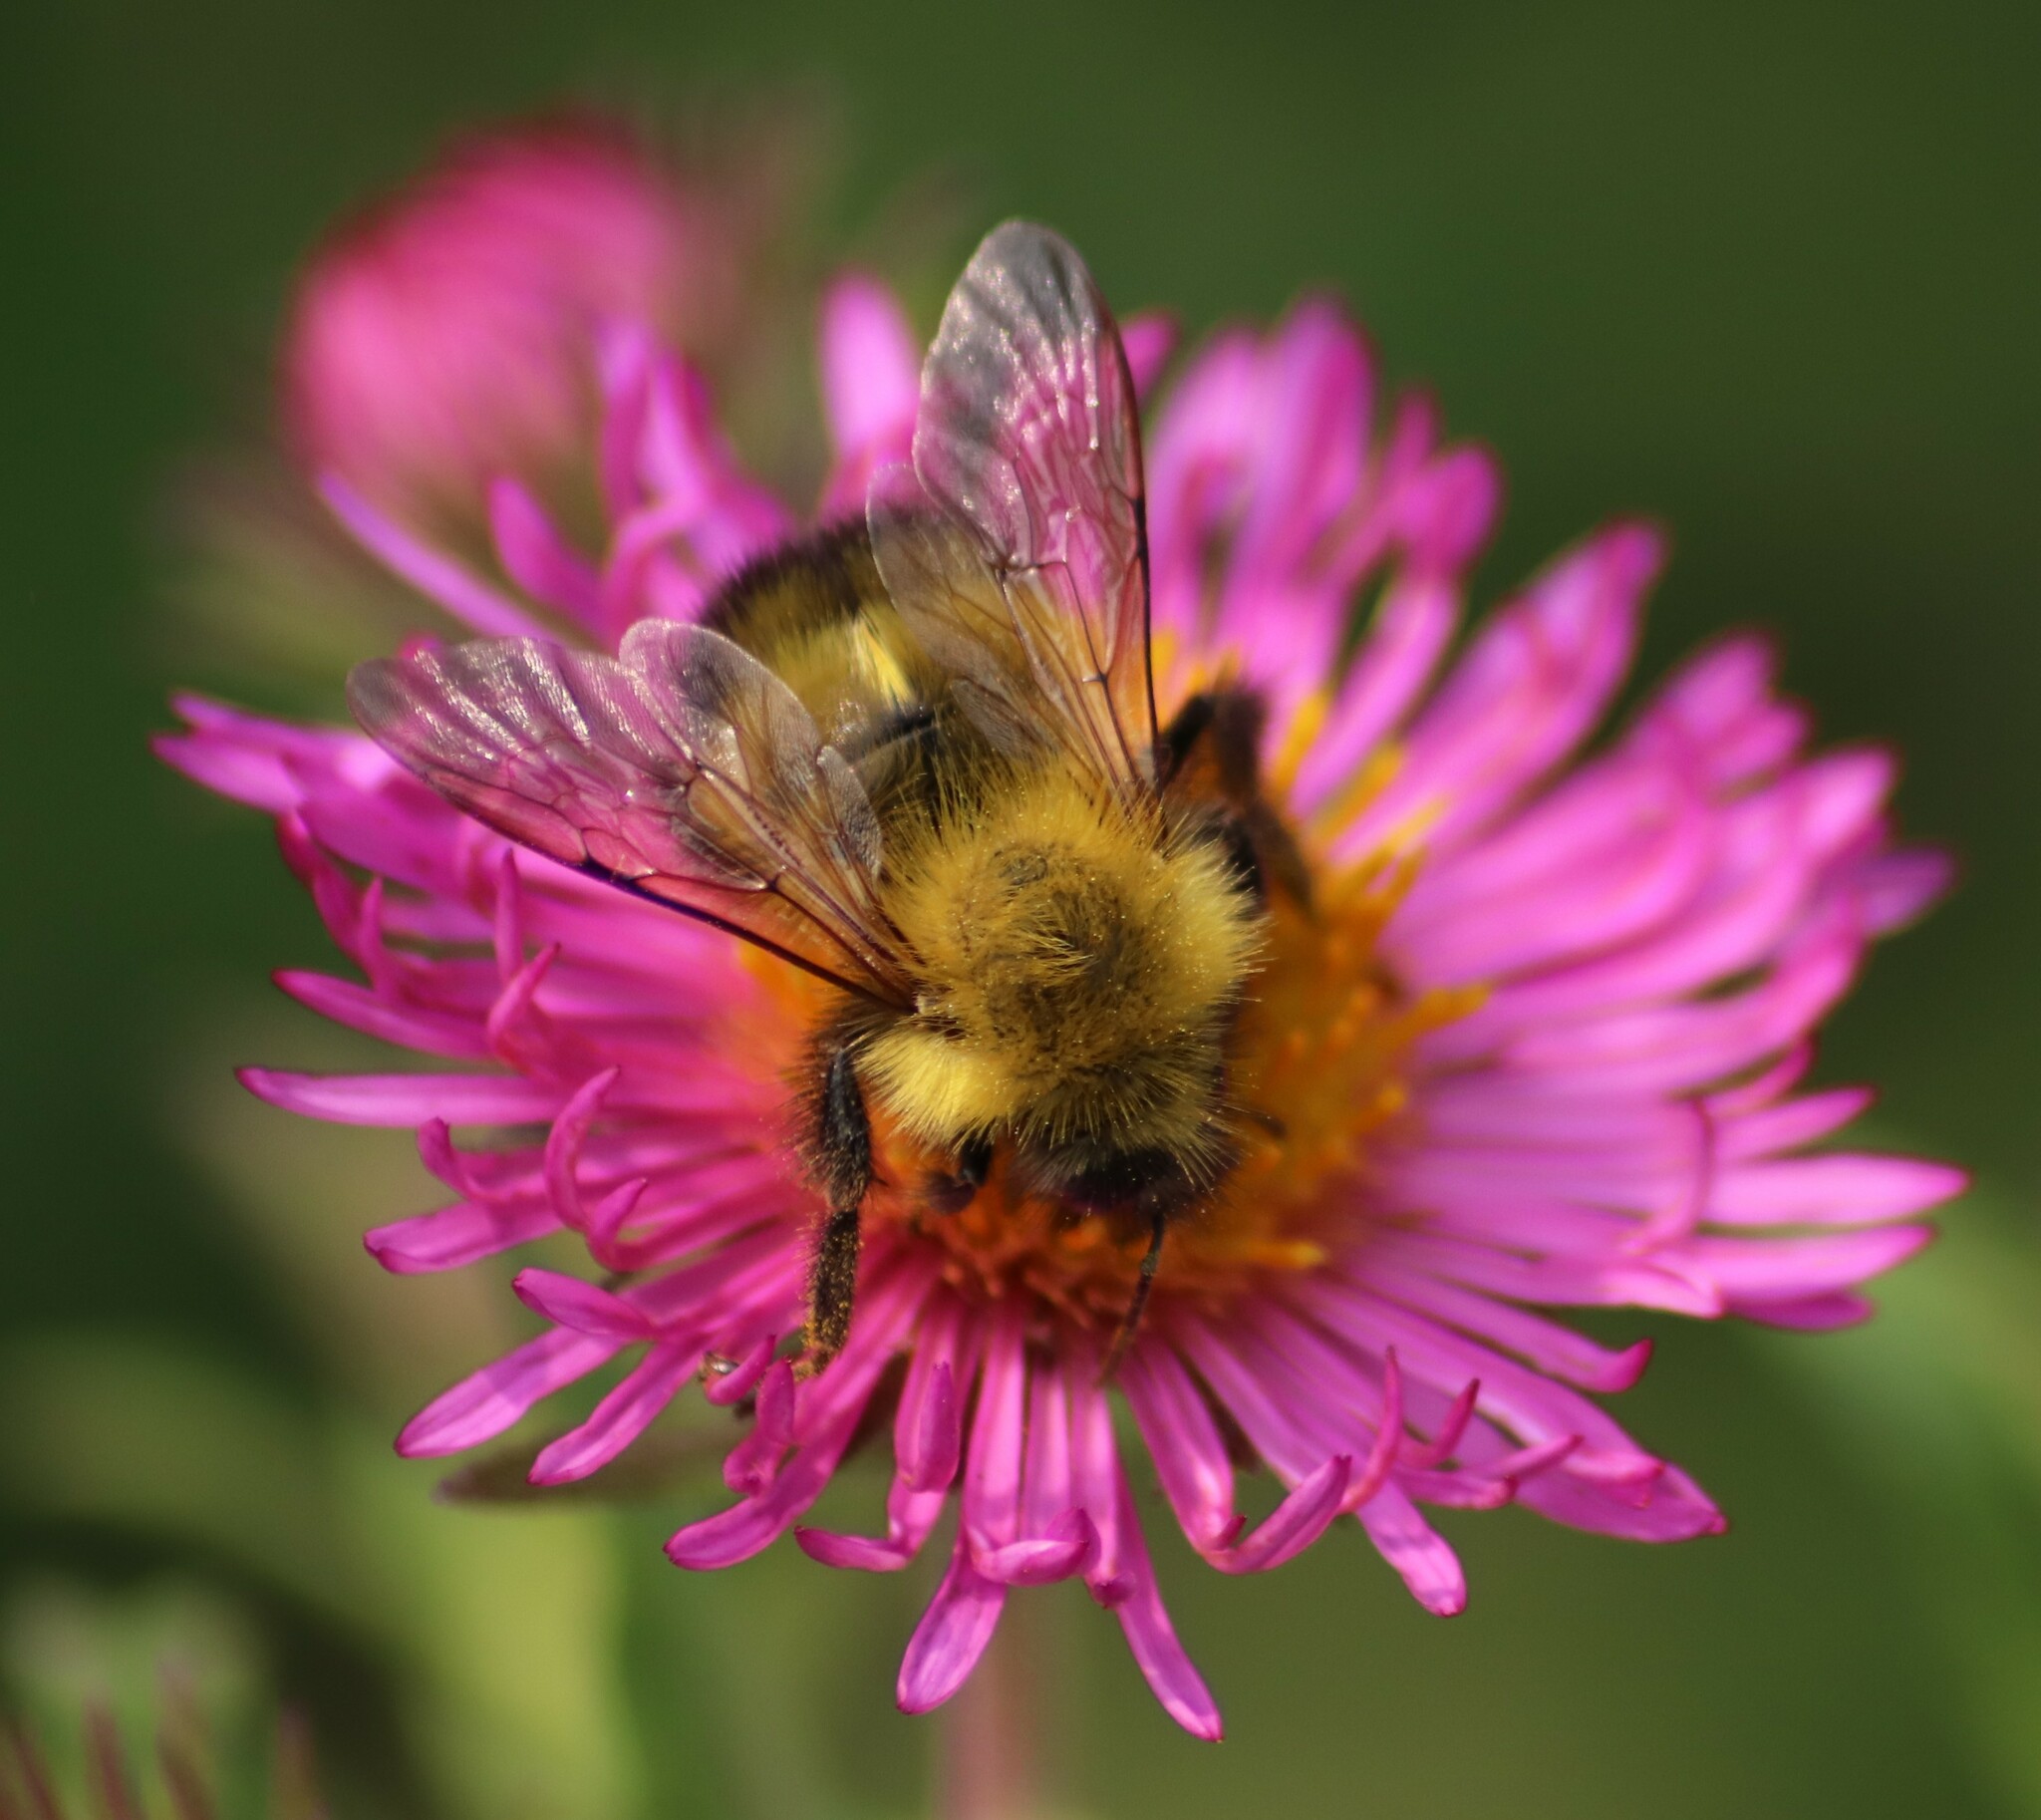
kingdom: Animalia
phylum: Arthropoda
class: Insecta
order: Hymenoptera
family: Apidae
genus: Bombus
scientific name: Bombus perplexus
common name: Confusing bumble bee
